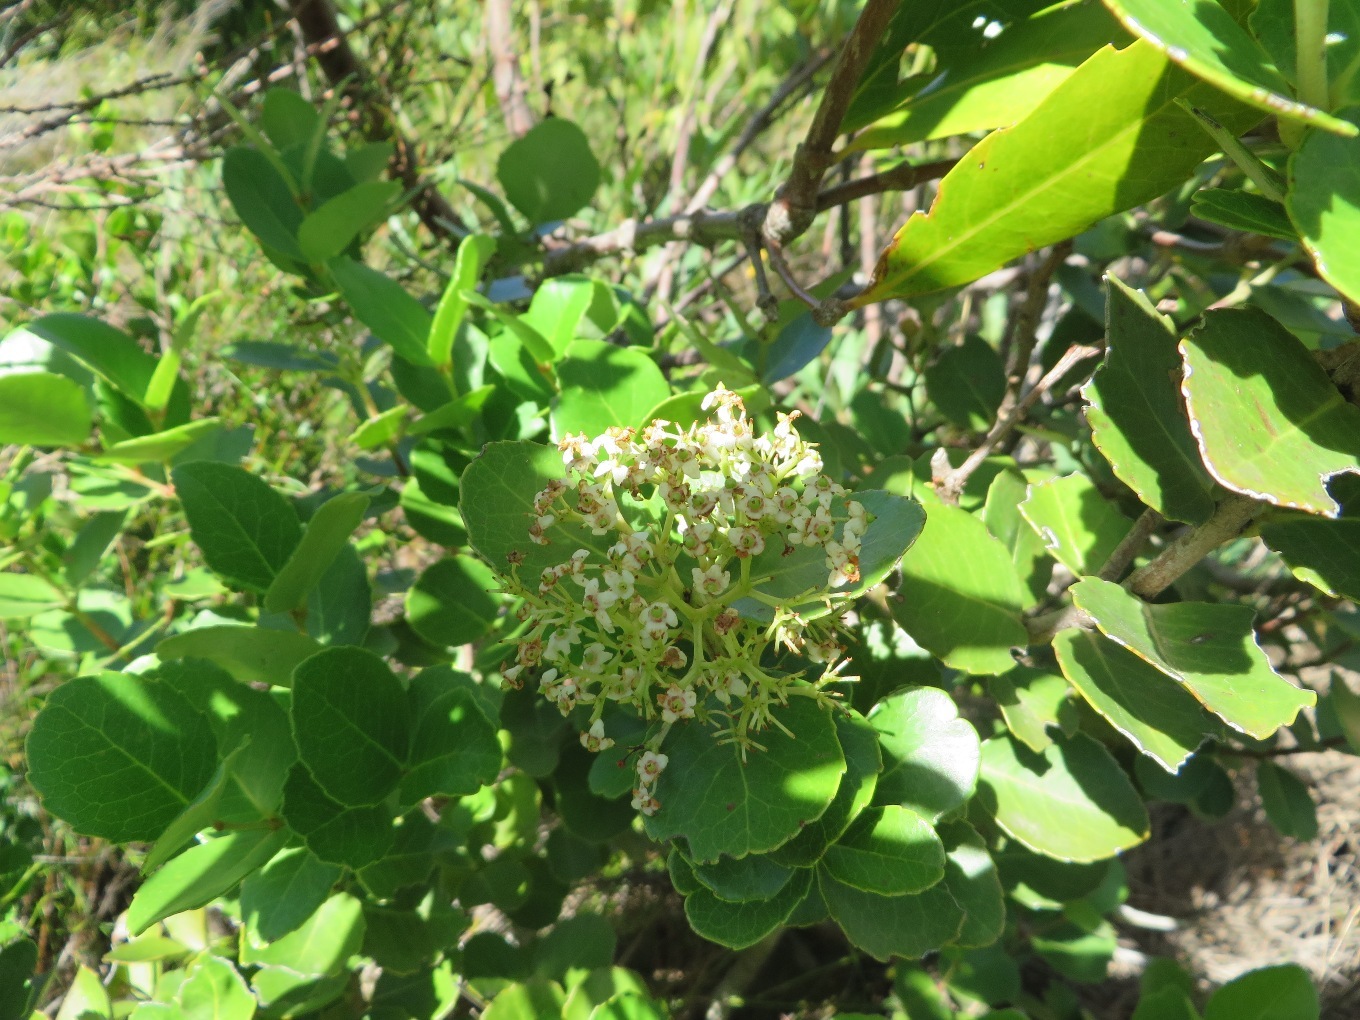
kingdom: Plantae
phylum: Tracheophyta
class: Magnoliopsida
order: Celastrales
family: Celastraceae
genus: Cassine
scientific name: Cassine peragua
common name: Cape saffron
